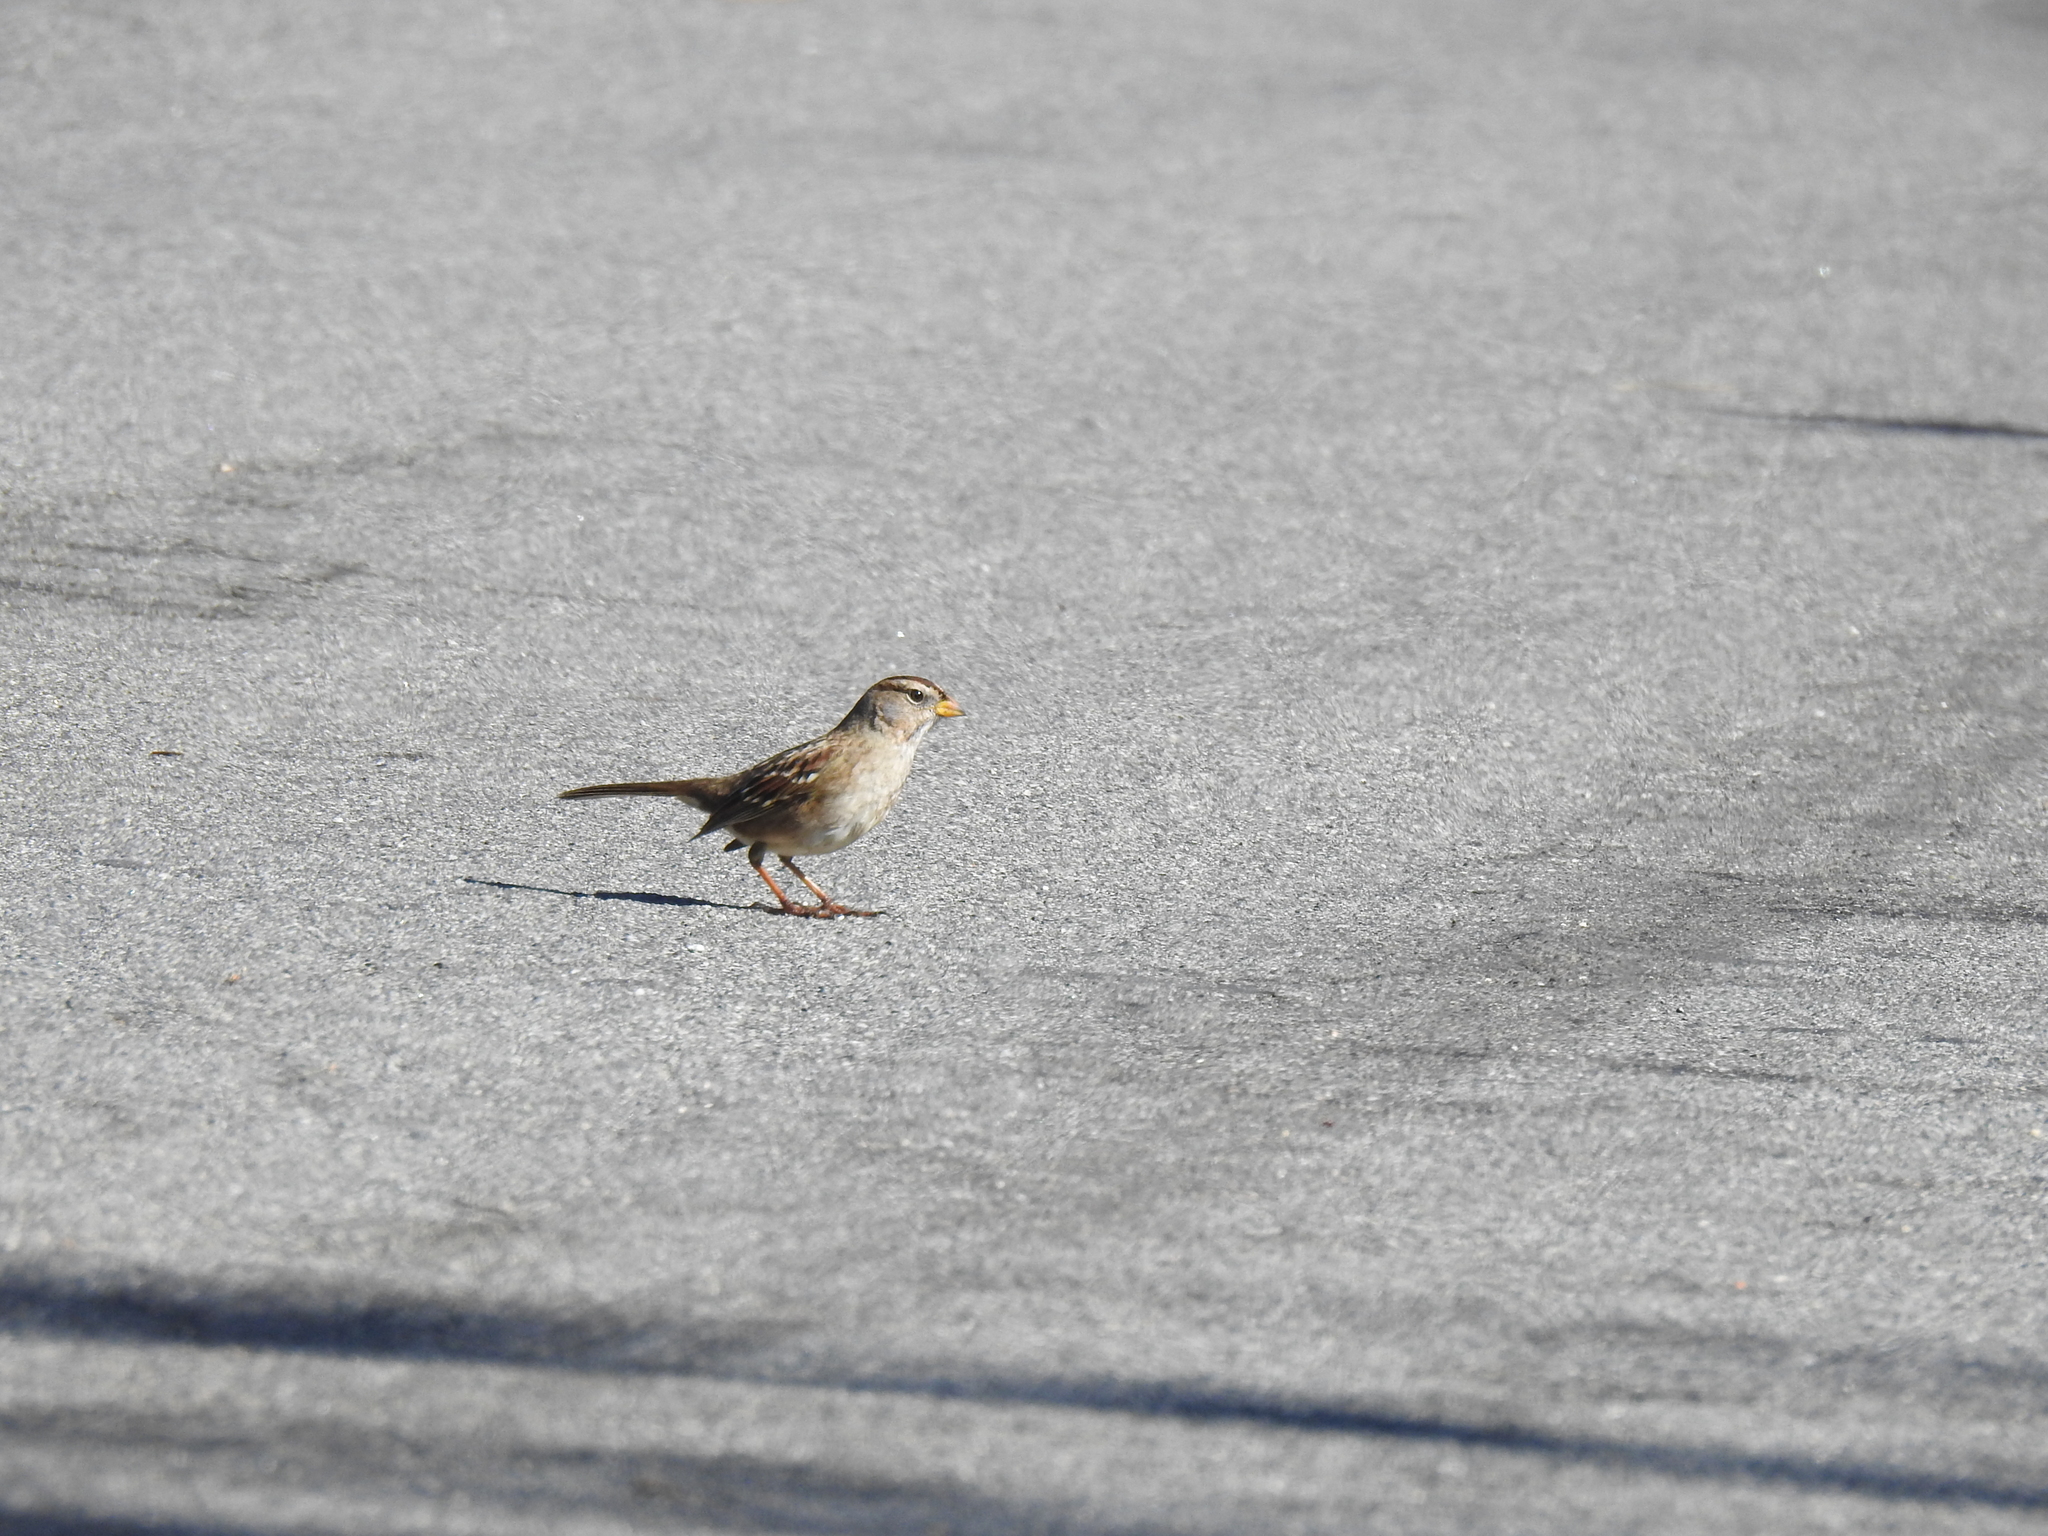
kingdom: Animalia
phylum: Chordata
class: Aves
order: Passeriformes
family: Passerellidae
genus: Zonotrichia
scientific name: Zonotrichia leucophrys
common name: White-crowned sparrow
